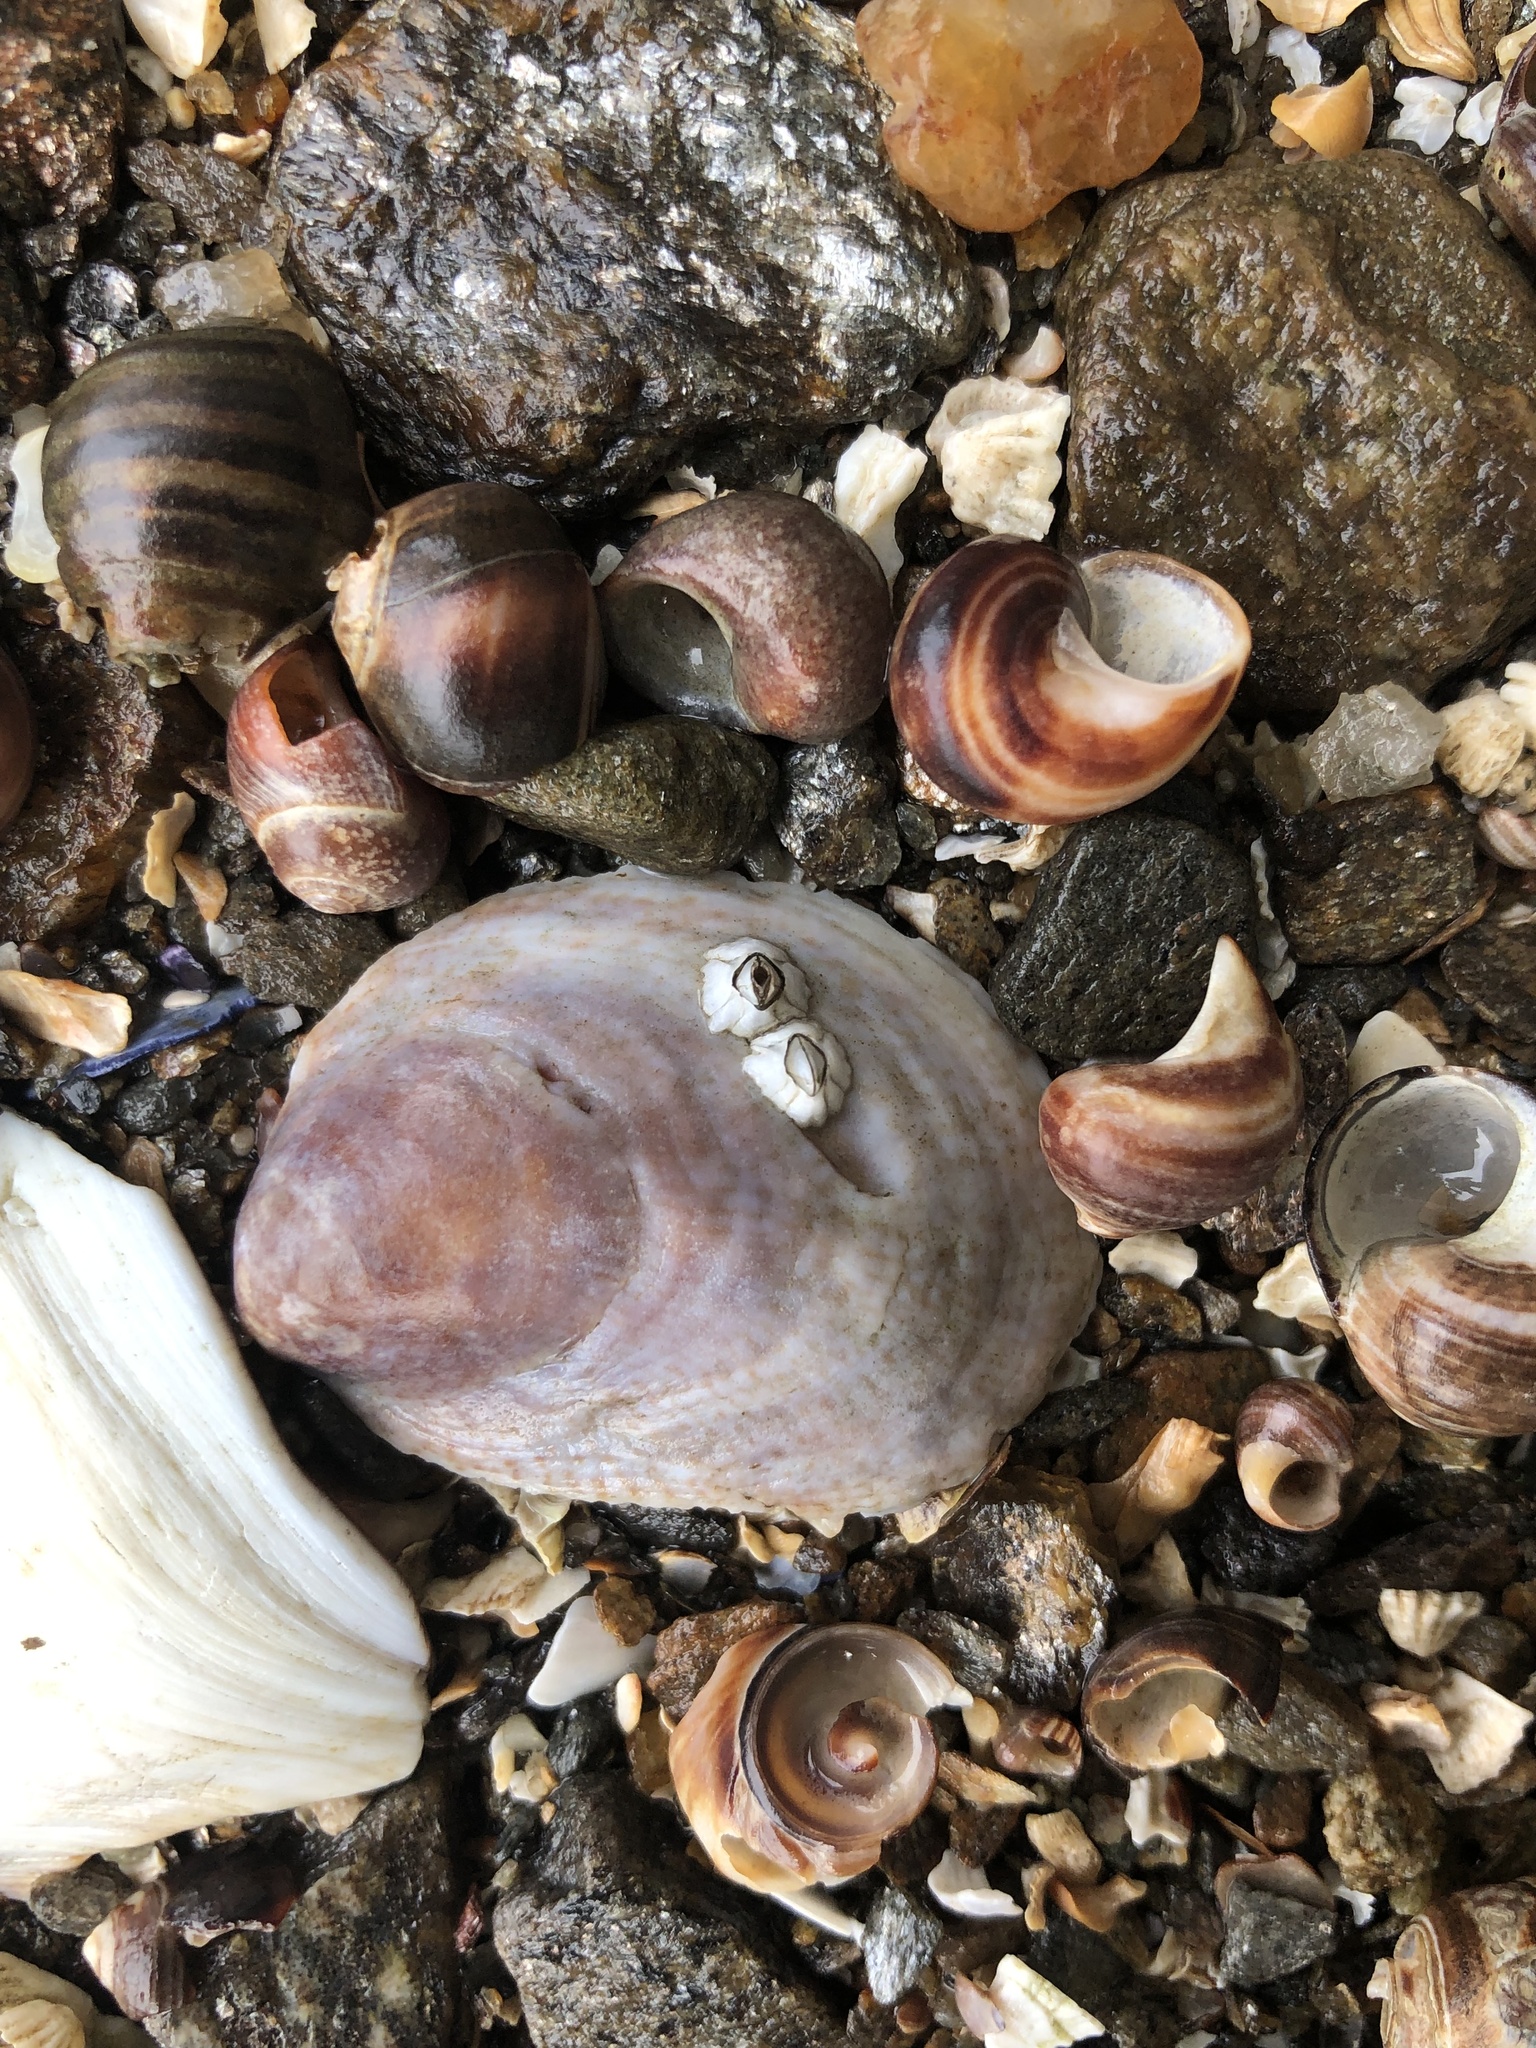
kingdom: Animalia
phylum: Mollusca
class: Gastropoda
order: Littorinimorpha
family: Calyptraeidae
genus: Crepidula
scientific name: Crepidula fornicata
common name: Slipper limpet
